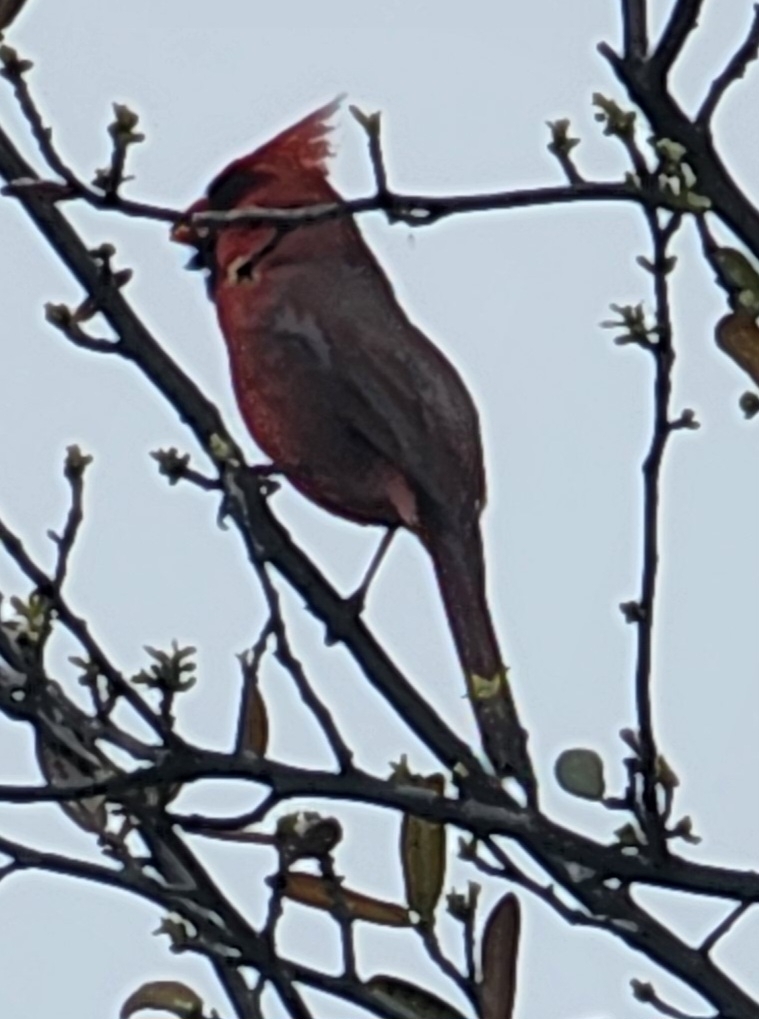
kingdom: Animalia
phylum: Chordata
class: Aves
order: Passeriformes
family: Cardinalidae
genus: Cardinalis
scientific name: Cardinalis cardinalis
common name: Northern cardinal
